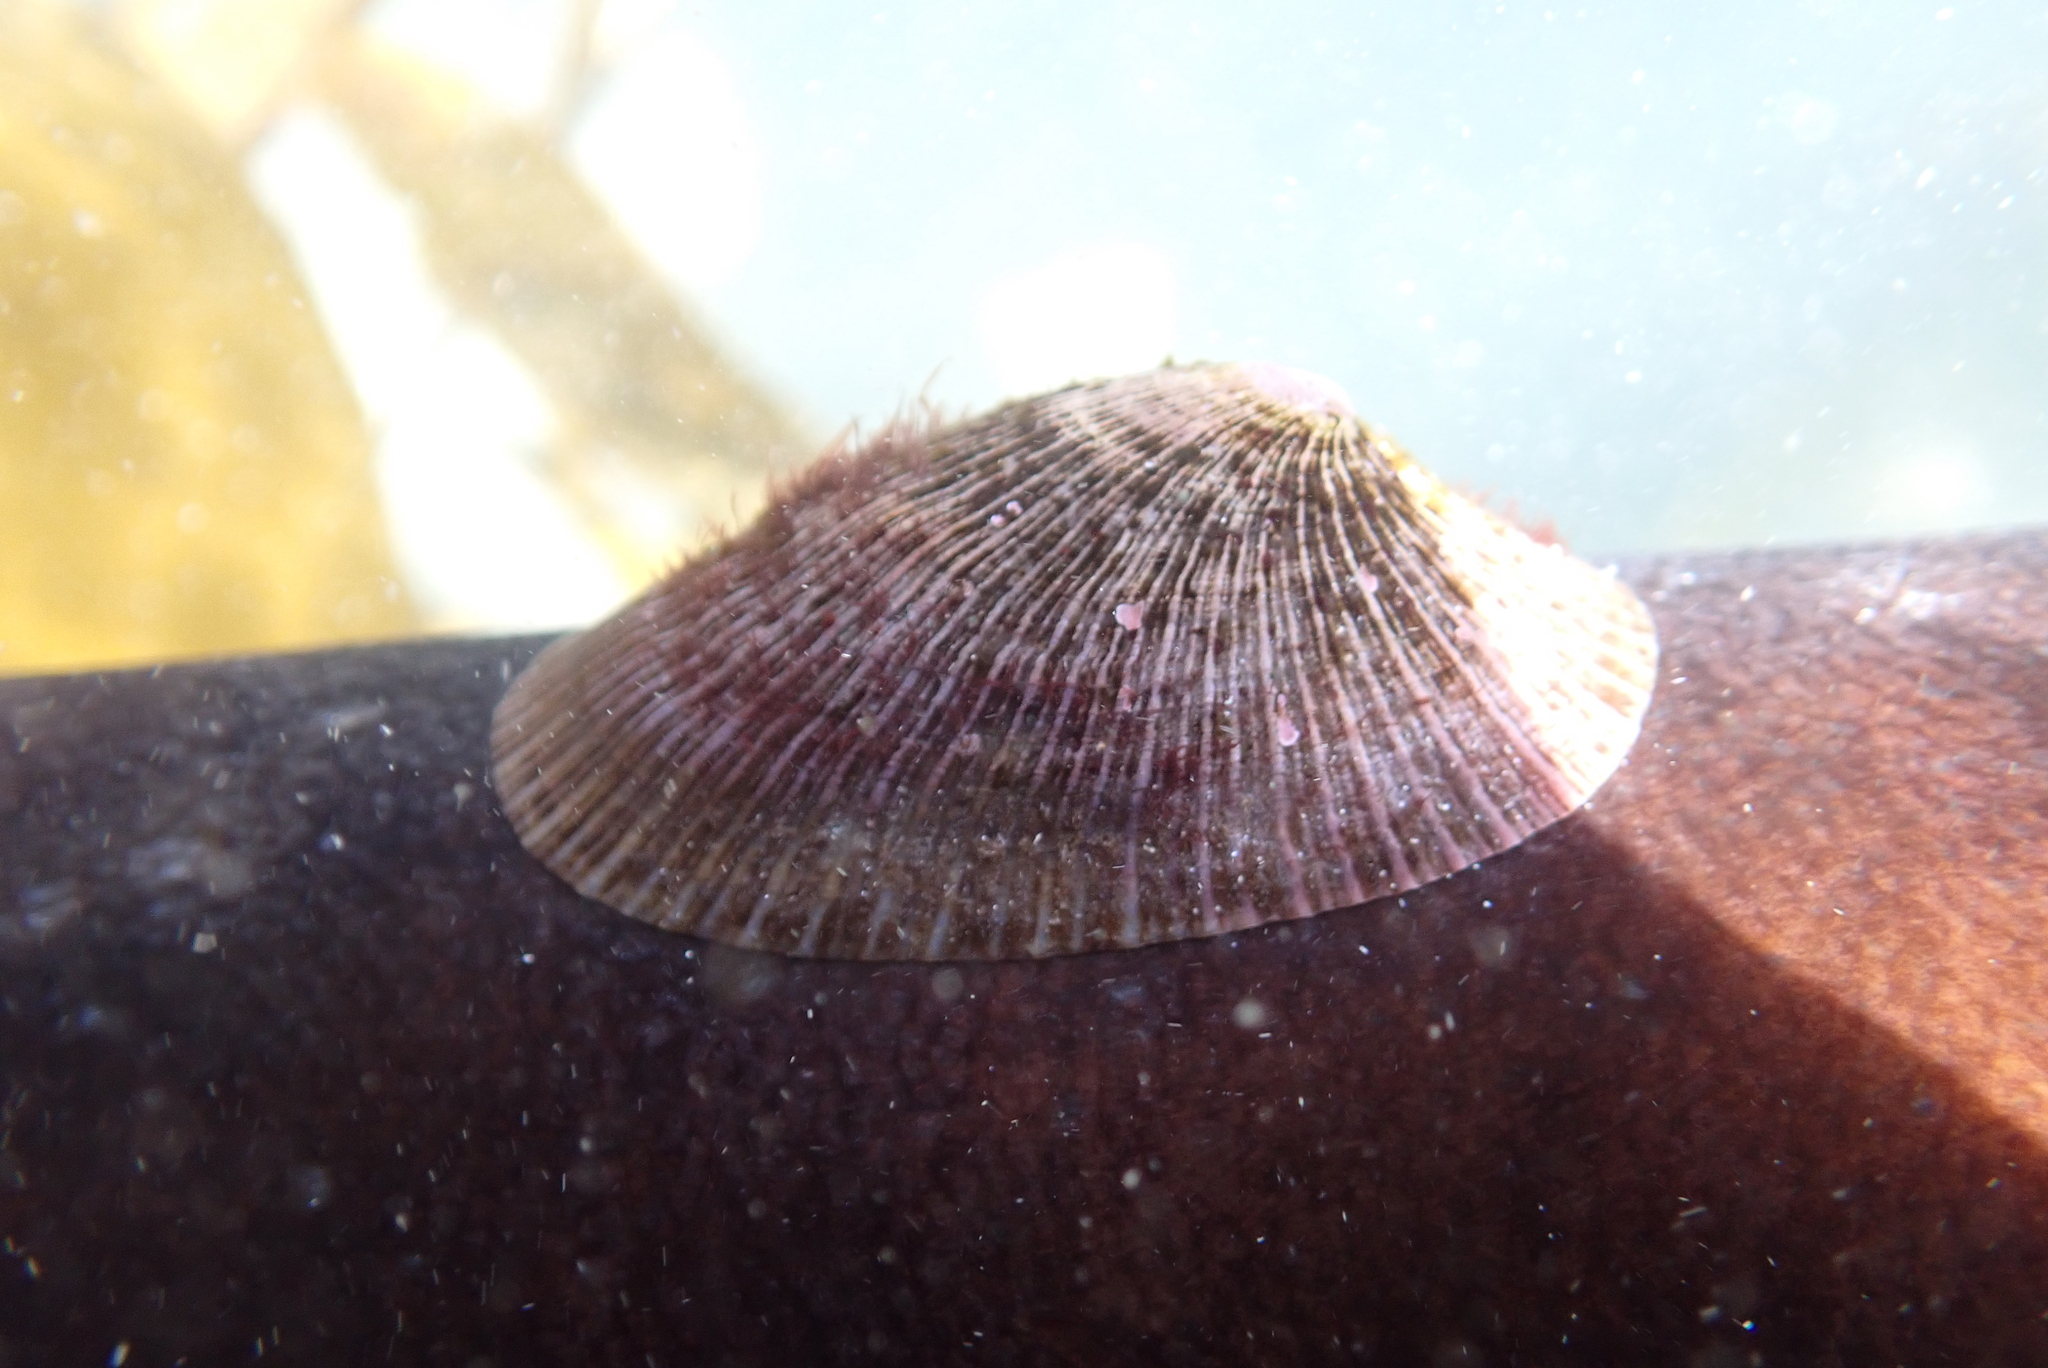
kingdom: Animalia
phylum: Mollusca
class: Gastropoda
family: Patellidae
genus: Cymbula
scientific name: Cymbula compressa
